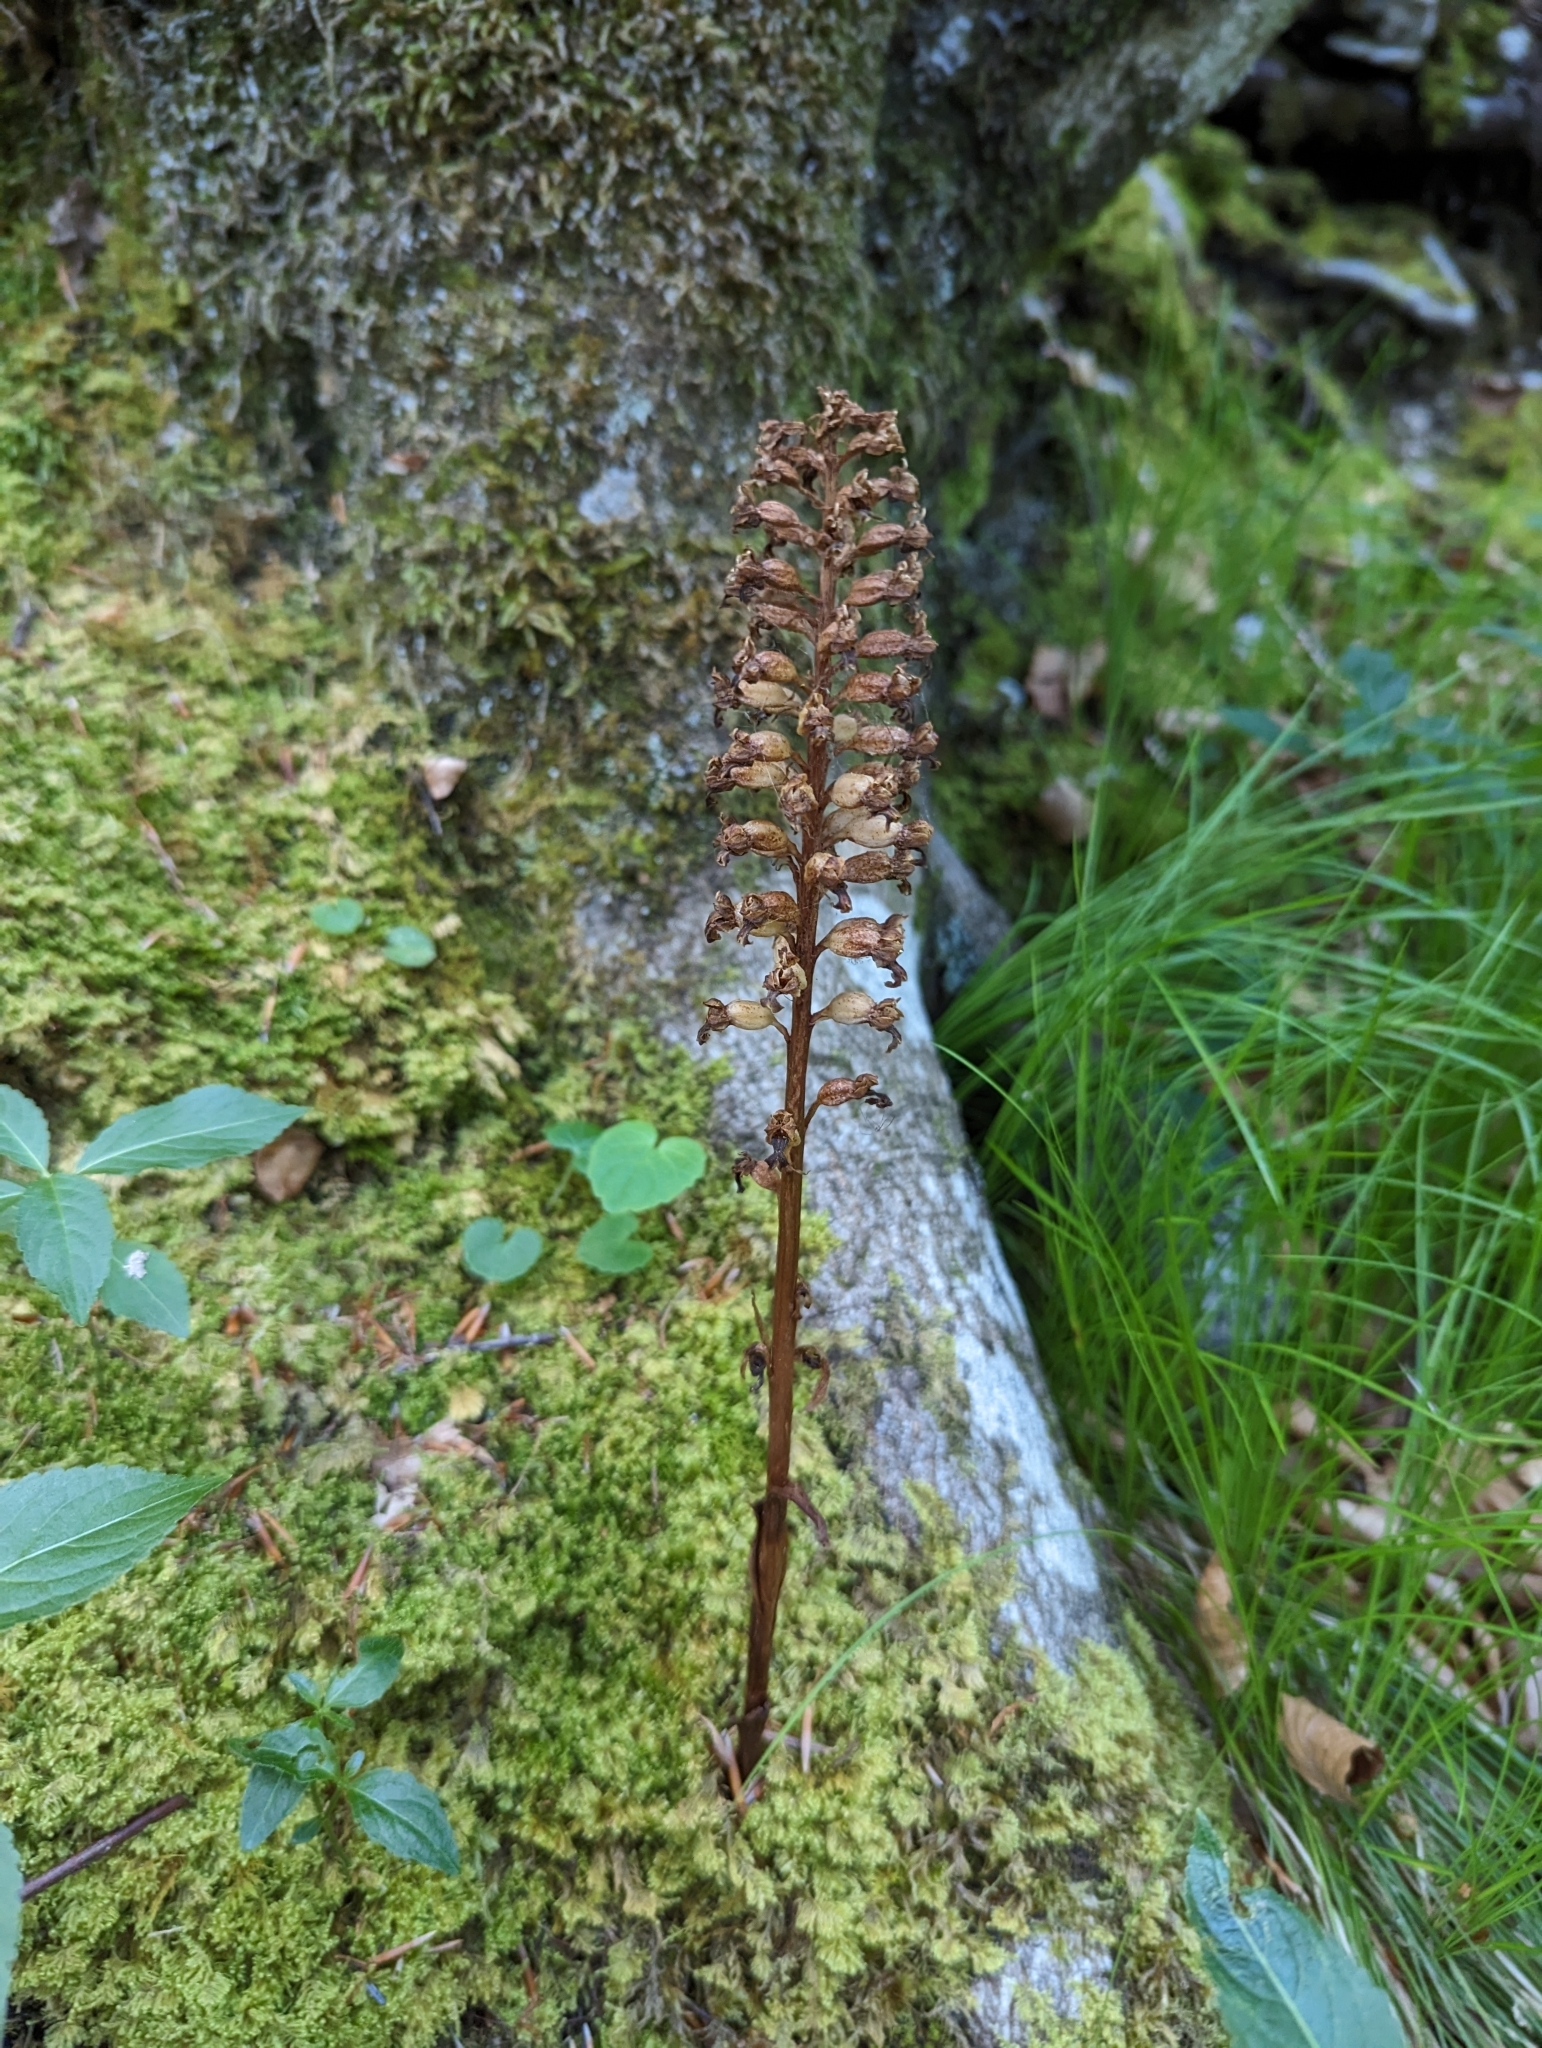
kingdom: Plantae
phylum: Tracheophyta
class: Liliopsida
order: Asparagales
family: Orchidaceae
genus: Neottia
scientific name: Neottia nidus-avis
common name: Bird's-nest orchid
